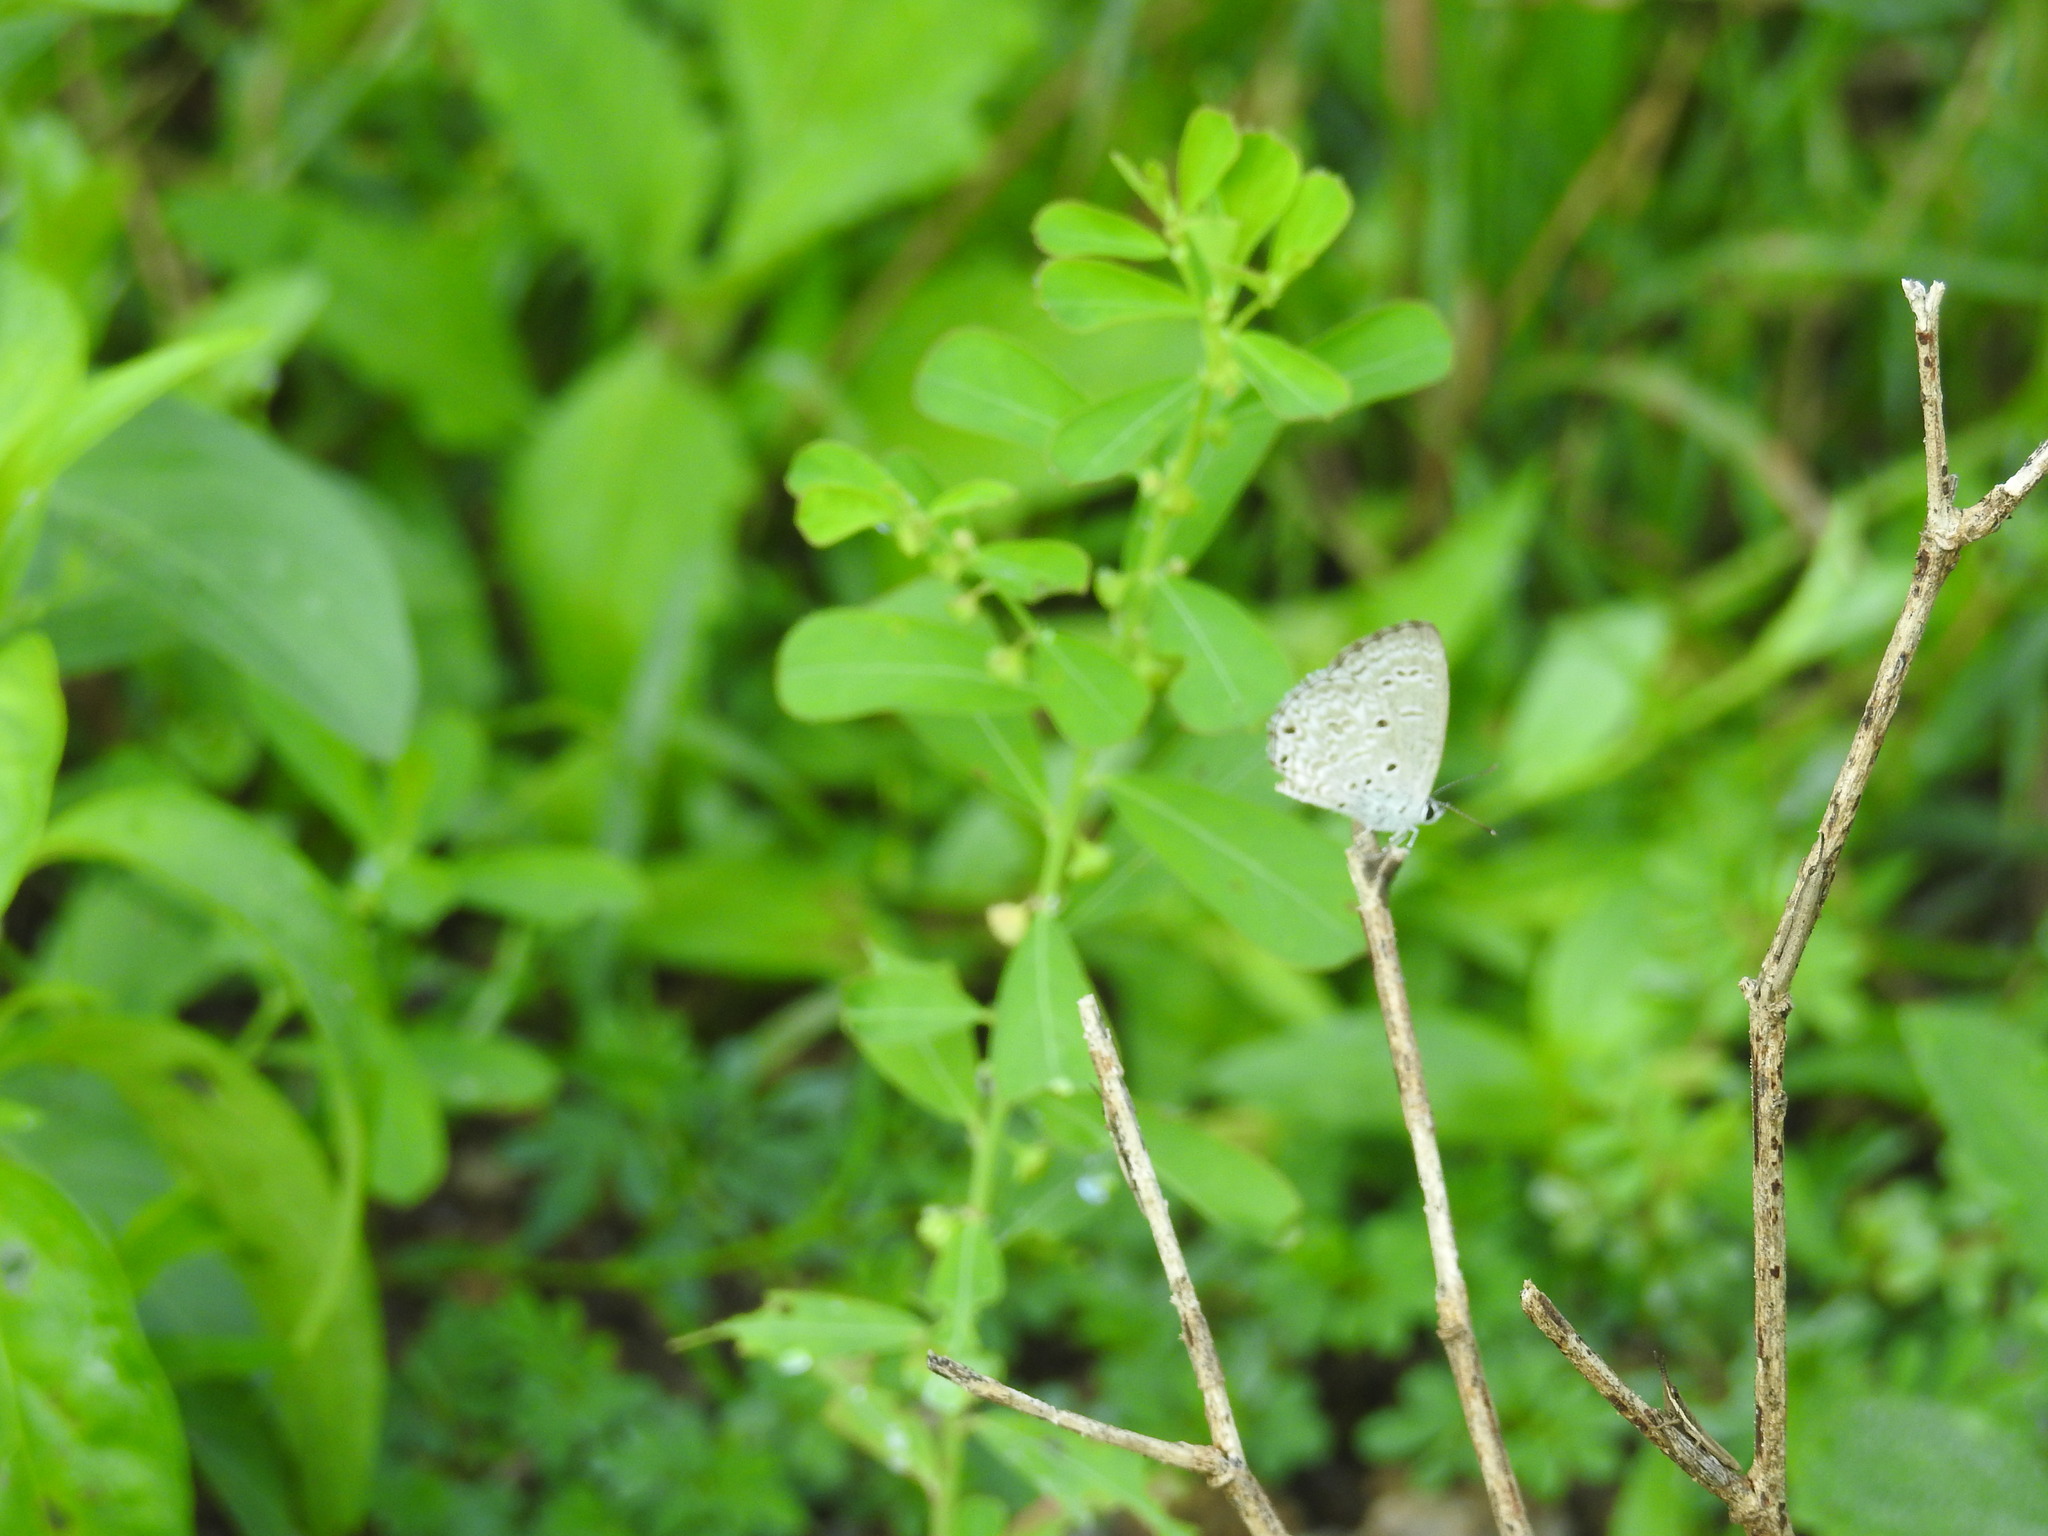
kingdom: Animalia
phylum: Arthropoda
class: Insecta
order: Lepidoptera
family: Lycaenidae
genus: Chilades
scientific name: Chilades laius
